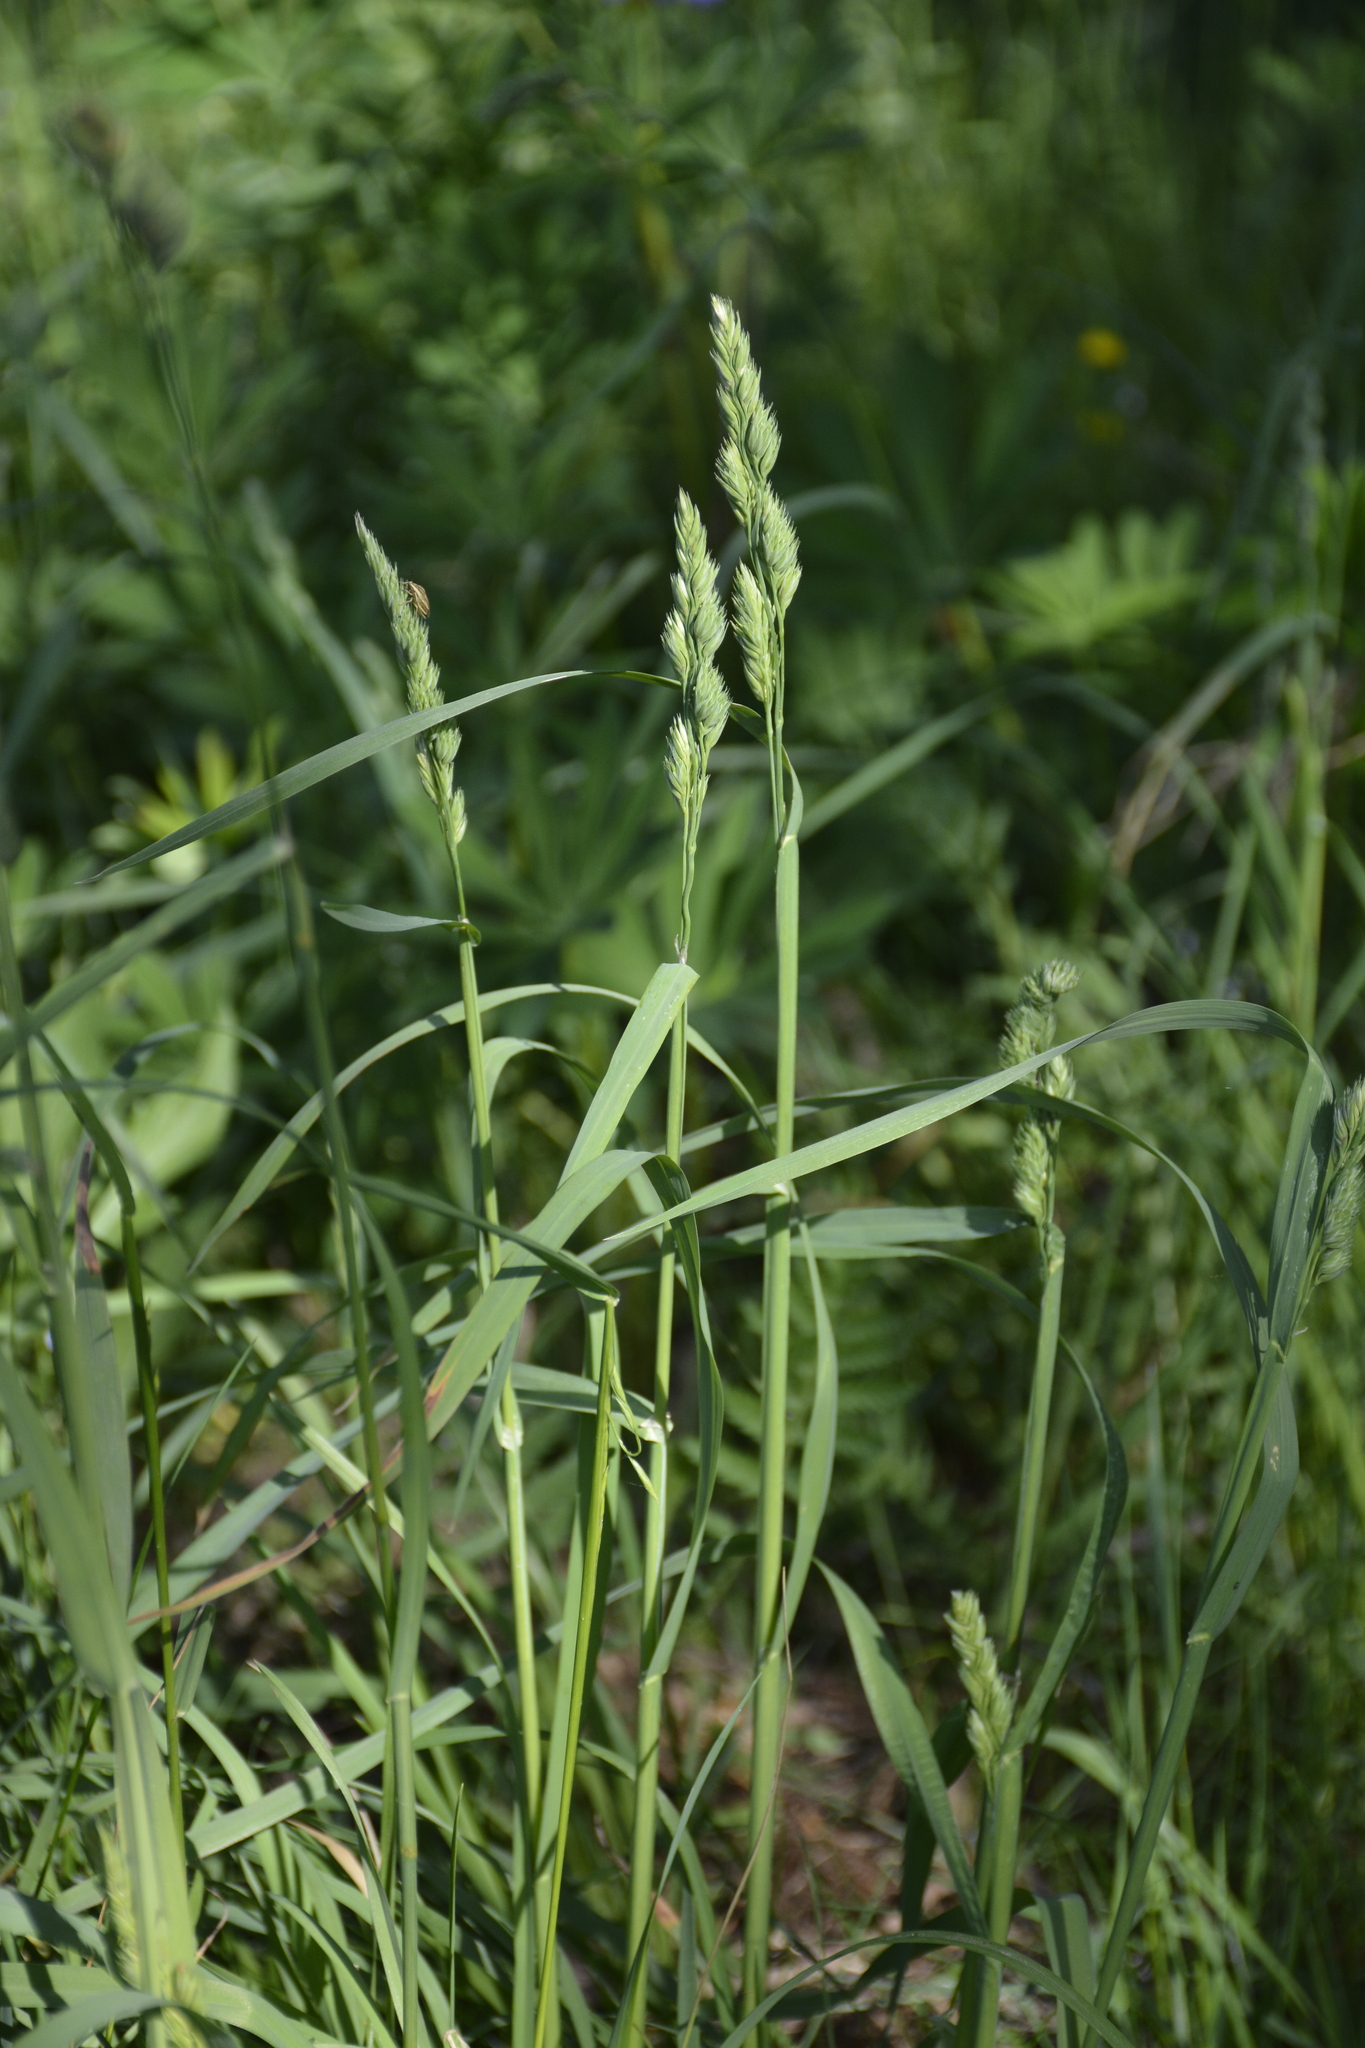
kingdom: Plantae
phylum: Tracheophyta
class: Liliopsida
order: Poales
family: Poaceae
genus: Dactylis
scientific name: Dactylis glomerata
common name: Orchardgrass
